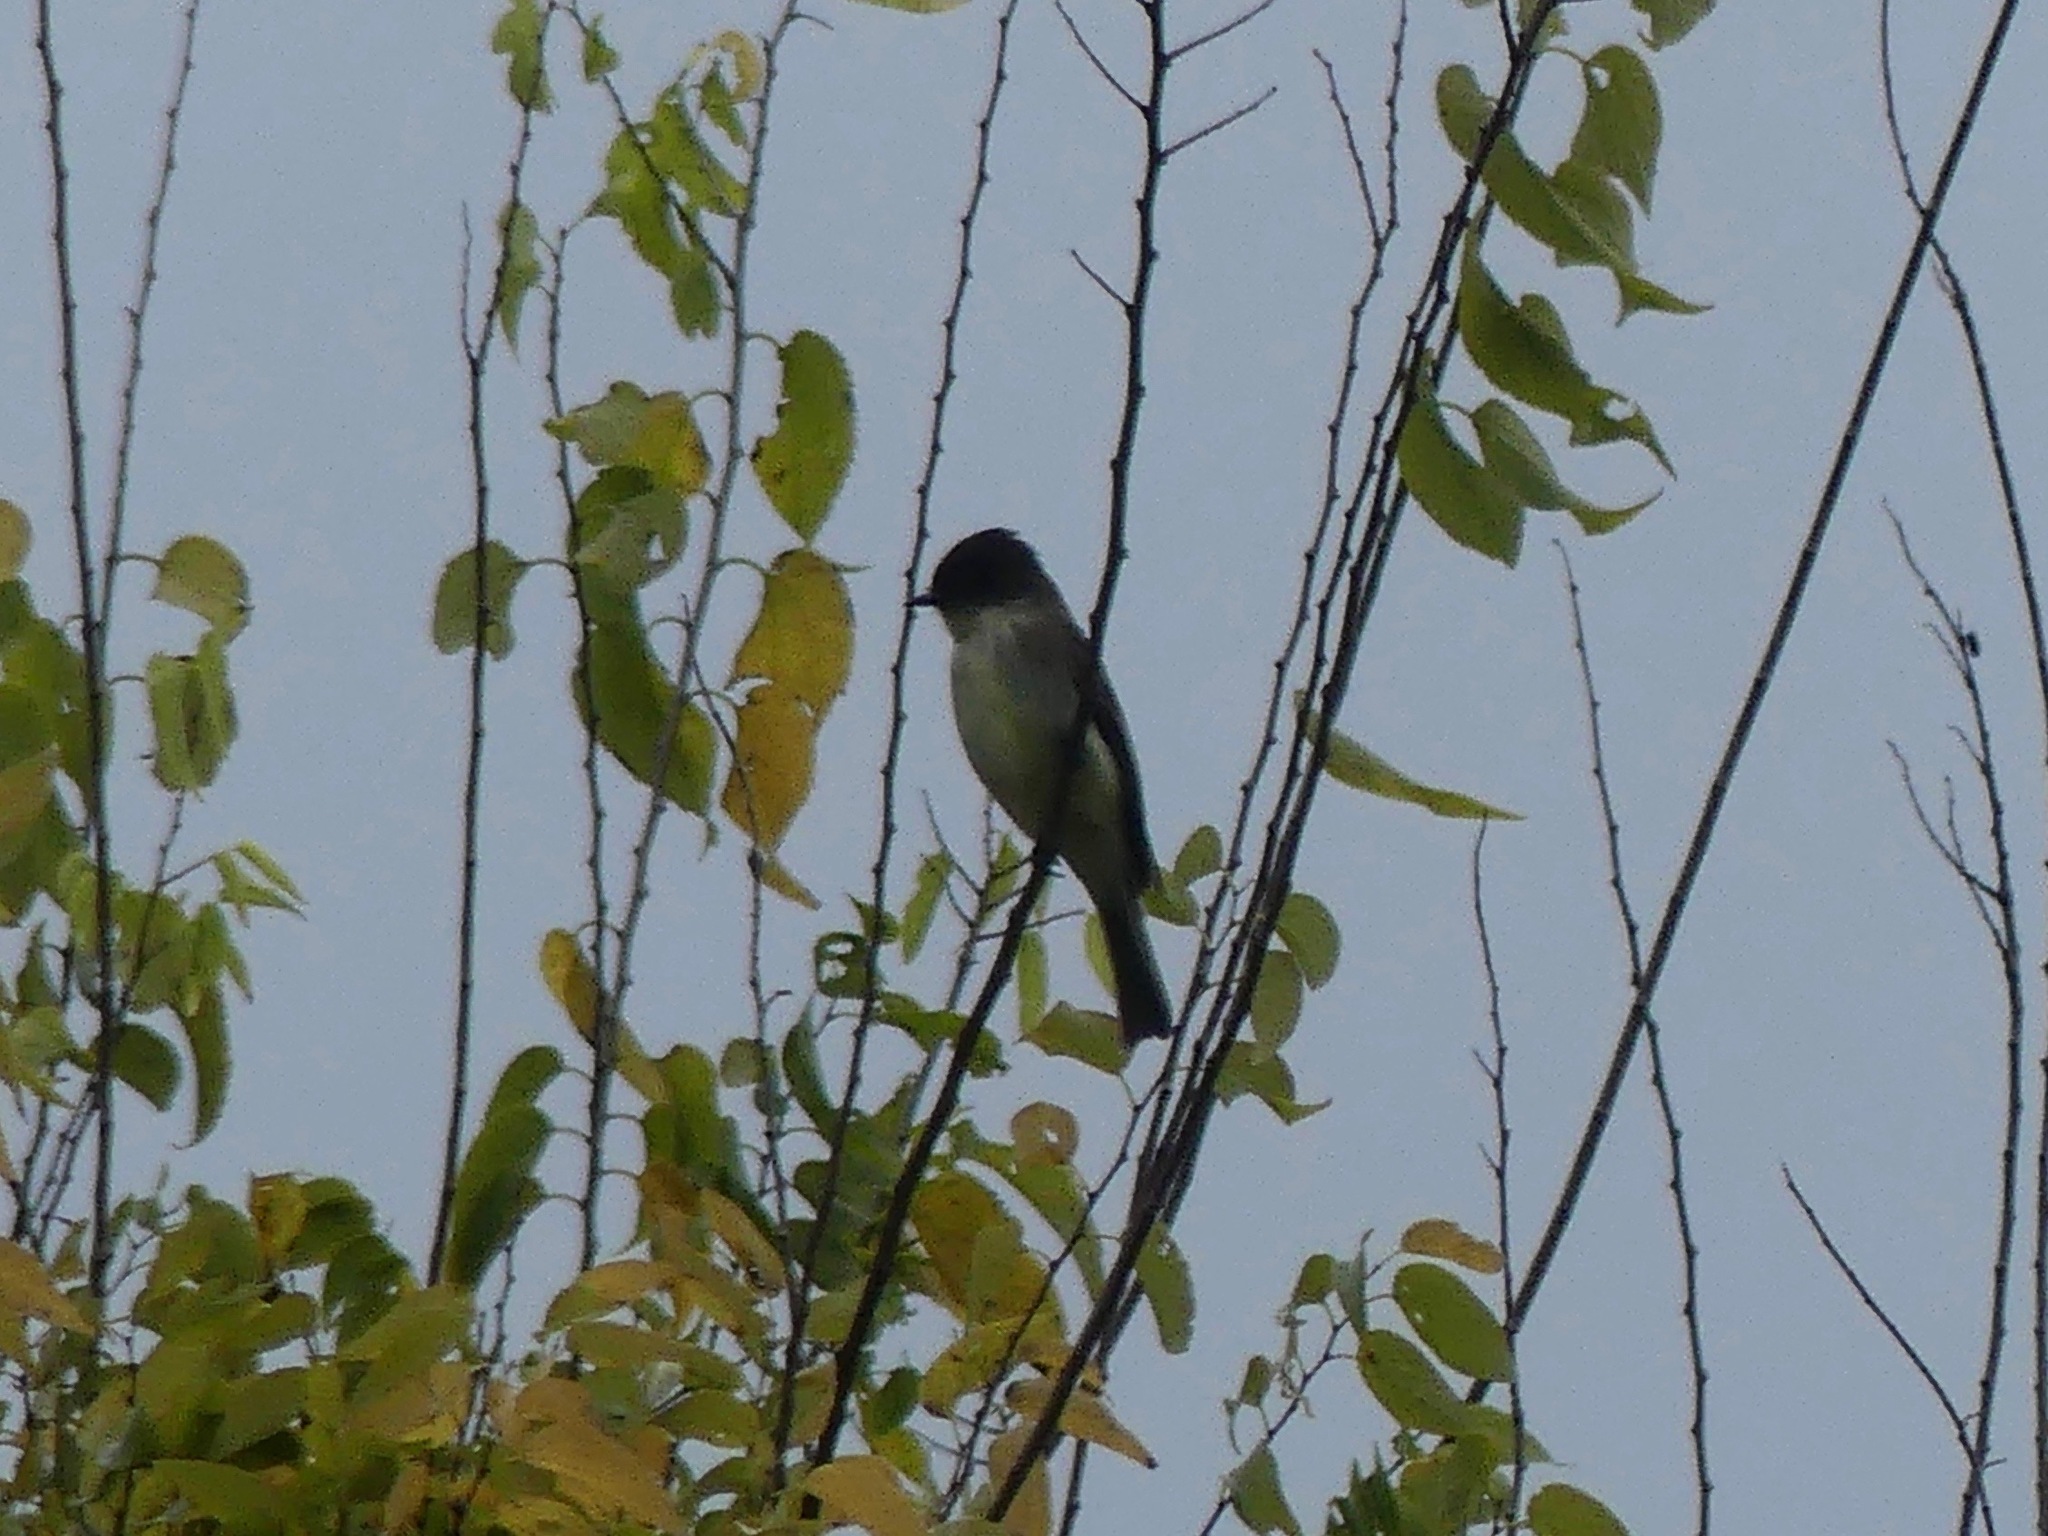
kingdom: Animalia
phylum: Chordata
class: Aves
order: Passeriformes
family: Tyrannidae
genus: Sayornis
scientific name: Sayornis phoebe
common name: Eastern phoebe
